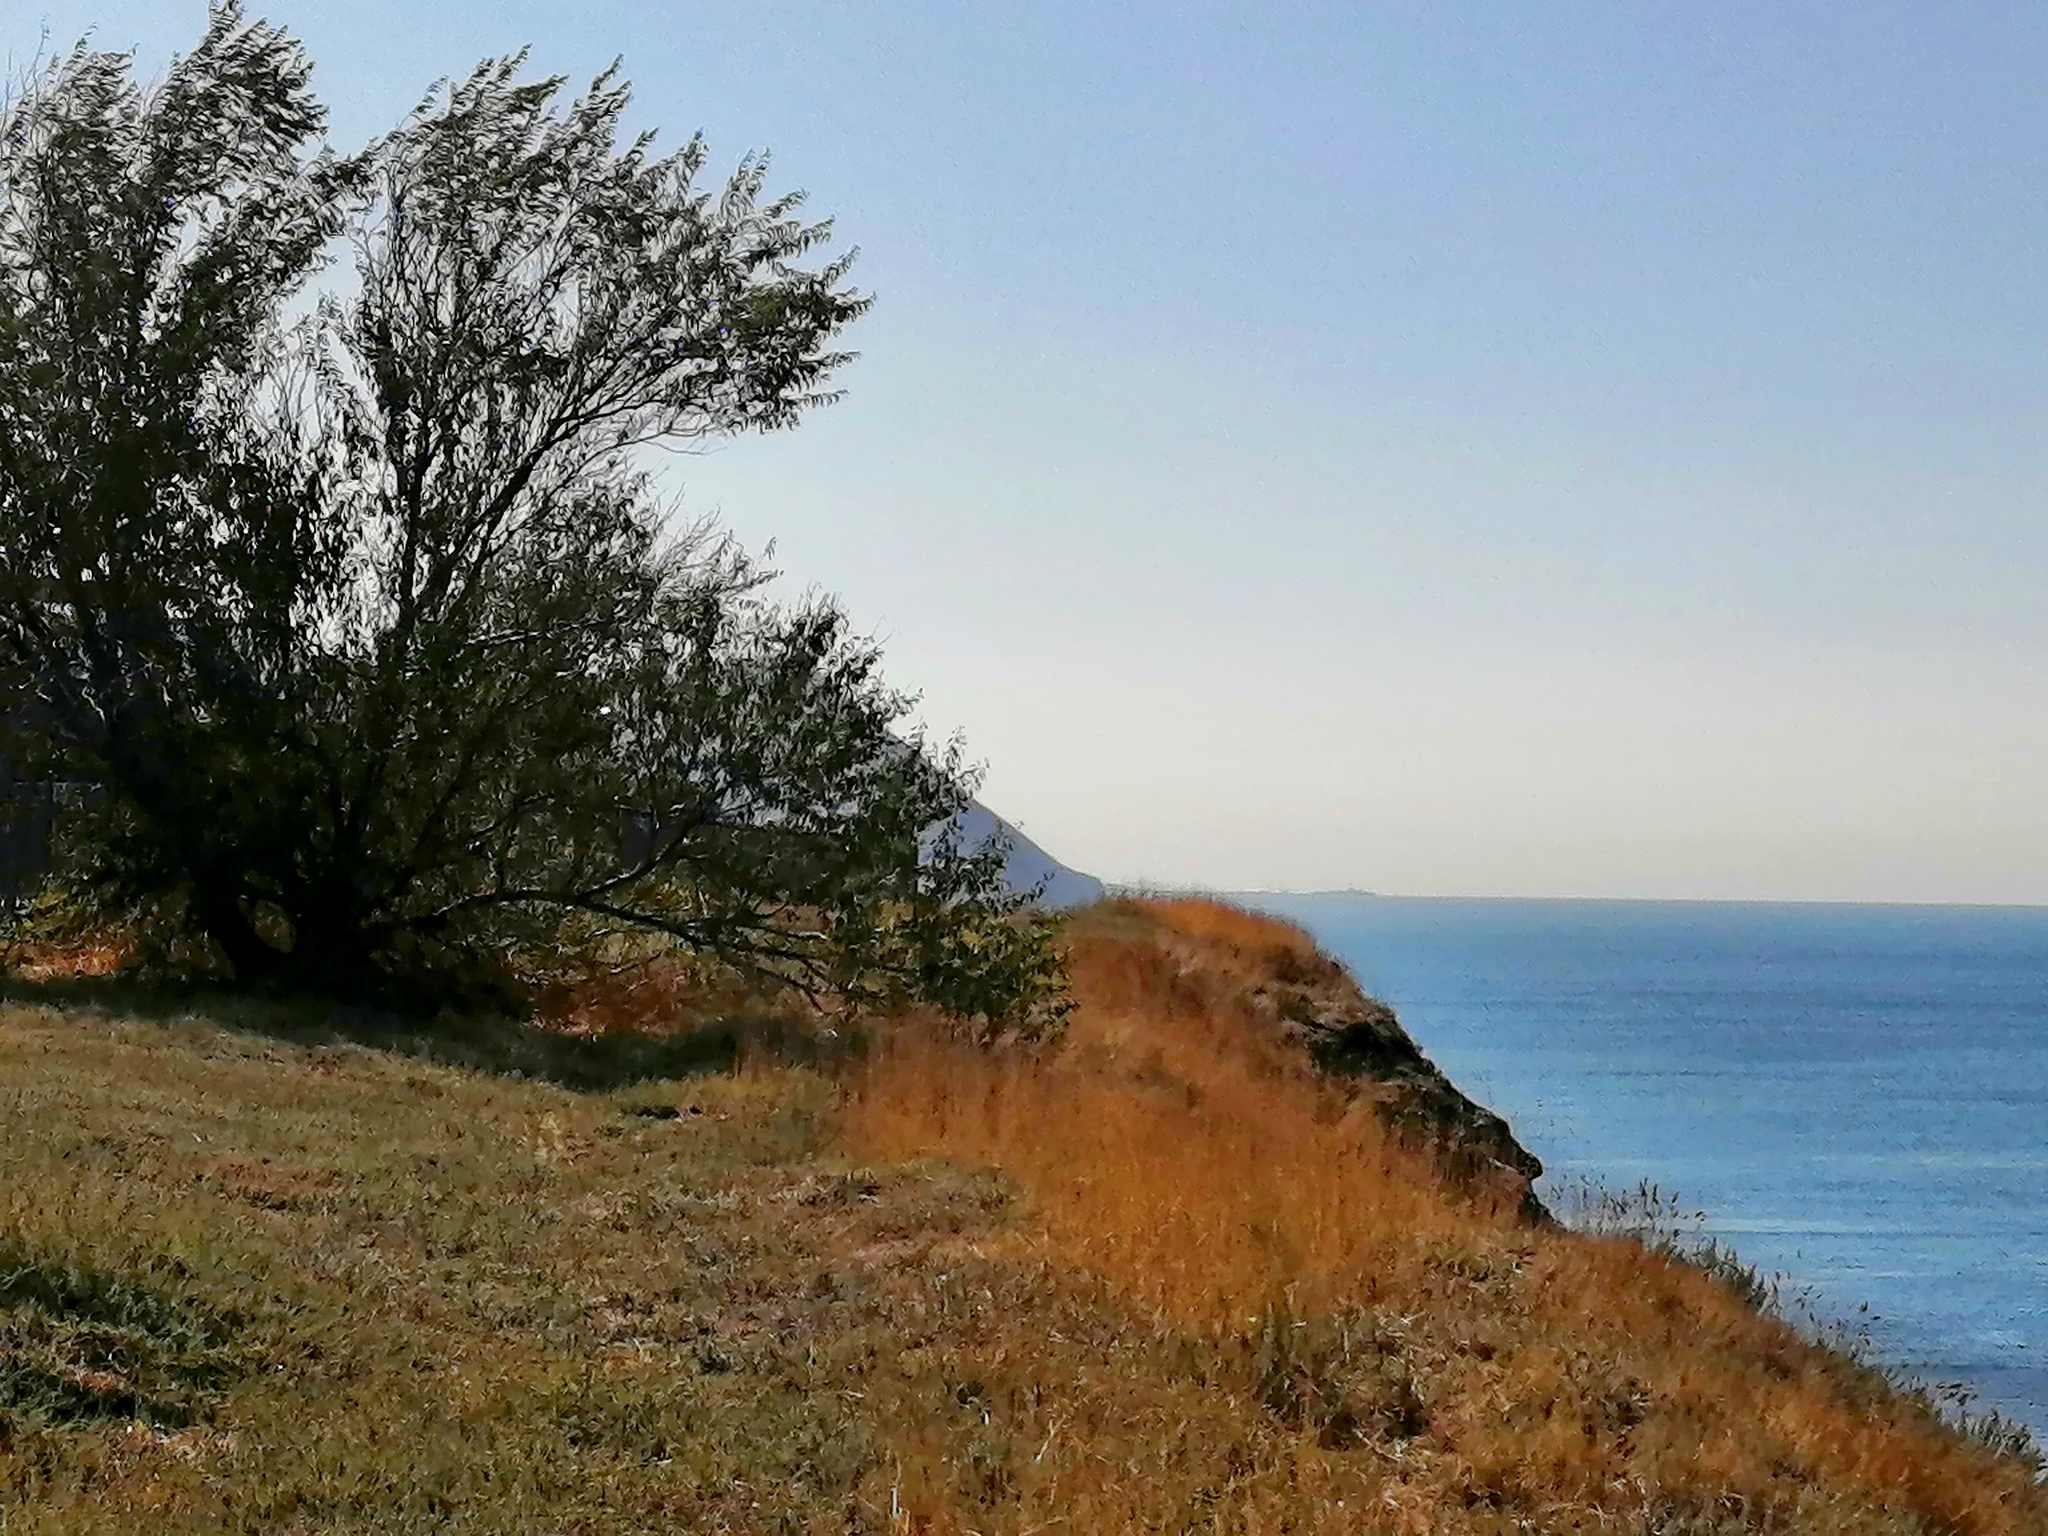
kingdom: Plantae
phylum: Tracheophyta
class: Magnoliopsida
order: Rosales
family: Elaeagnaceae
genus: Elaeagnus
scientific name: Elaeagnus angustifolia
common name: Russian olive
